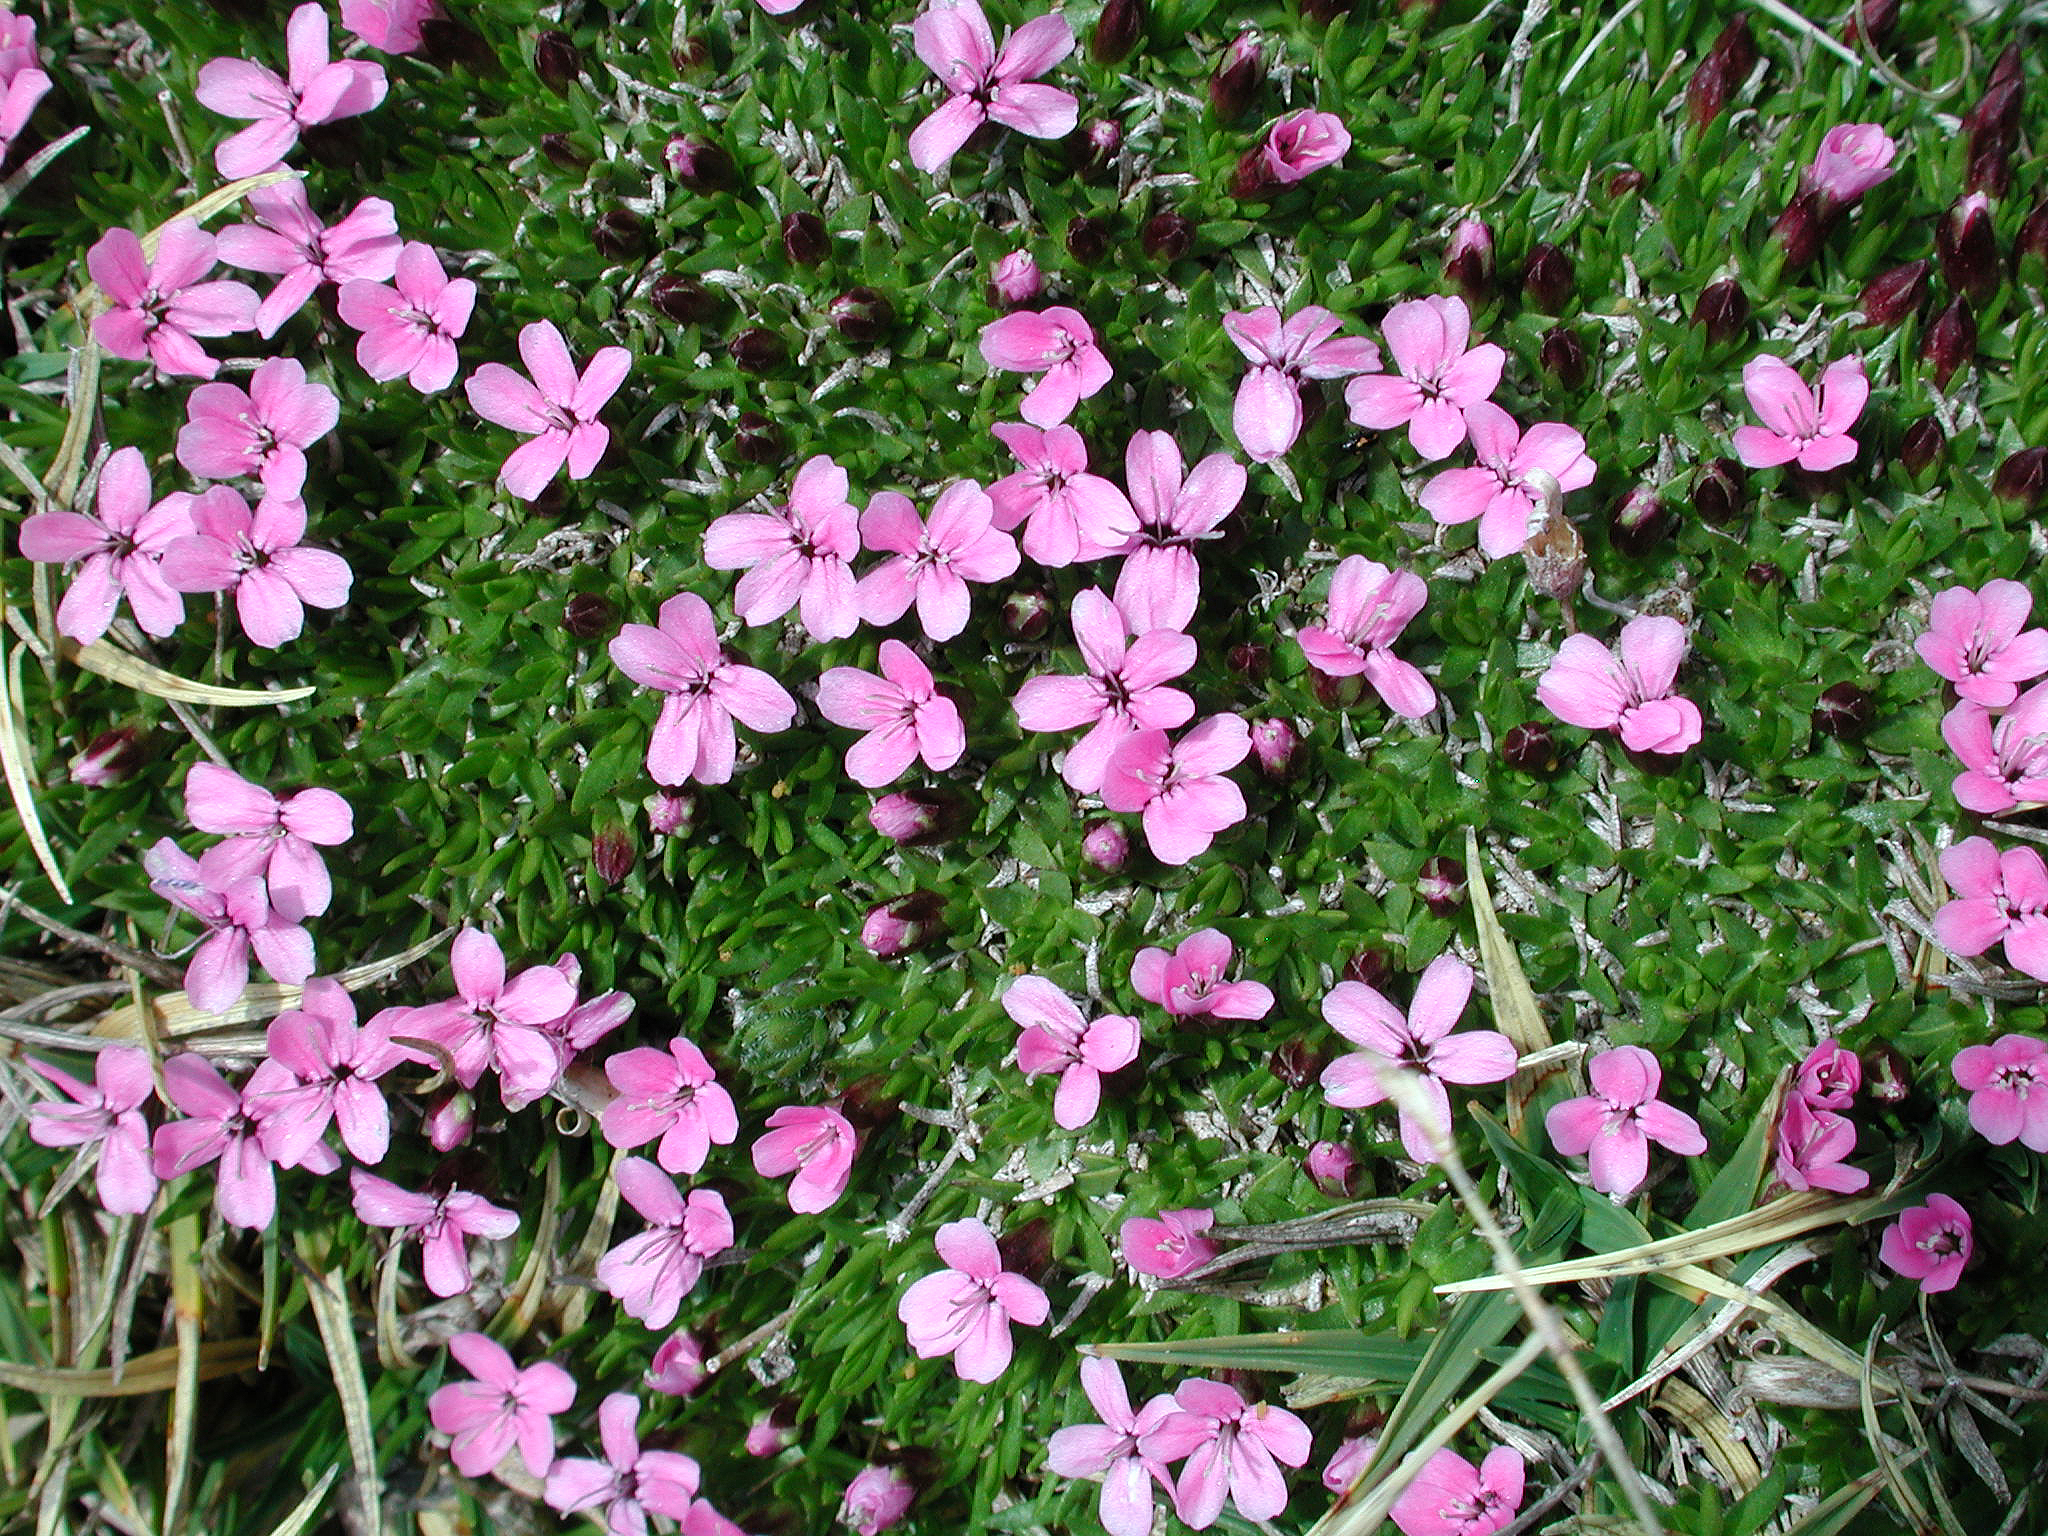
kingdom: Plantae
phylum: Tracheophyta
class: Magnoliopsida
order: Caryophyllales
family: Caryophyllaceae
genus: Silene
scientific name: Silene acaulis
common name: Moss campion
